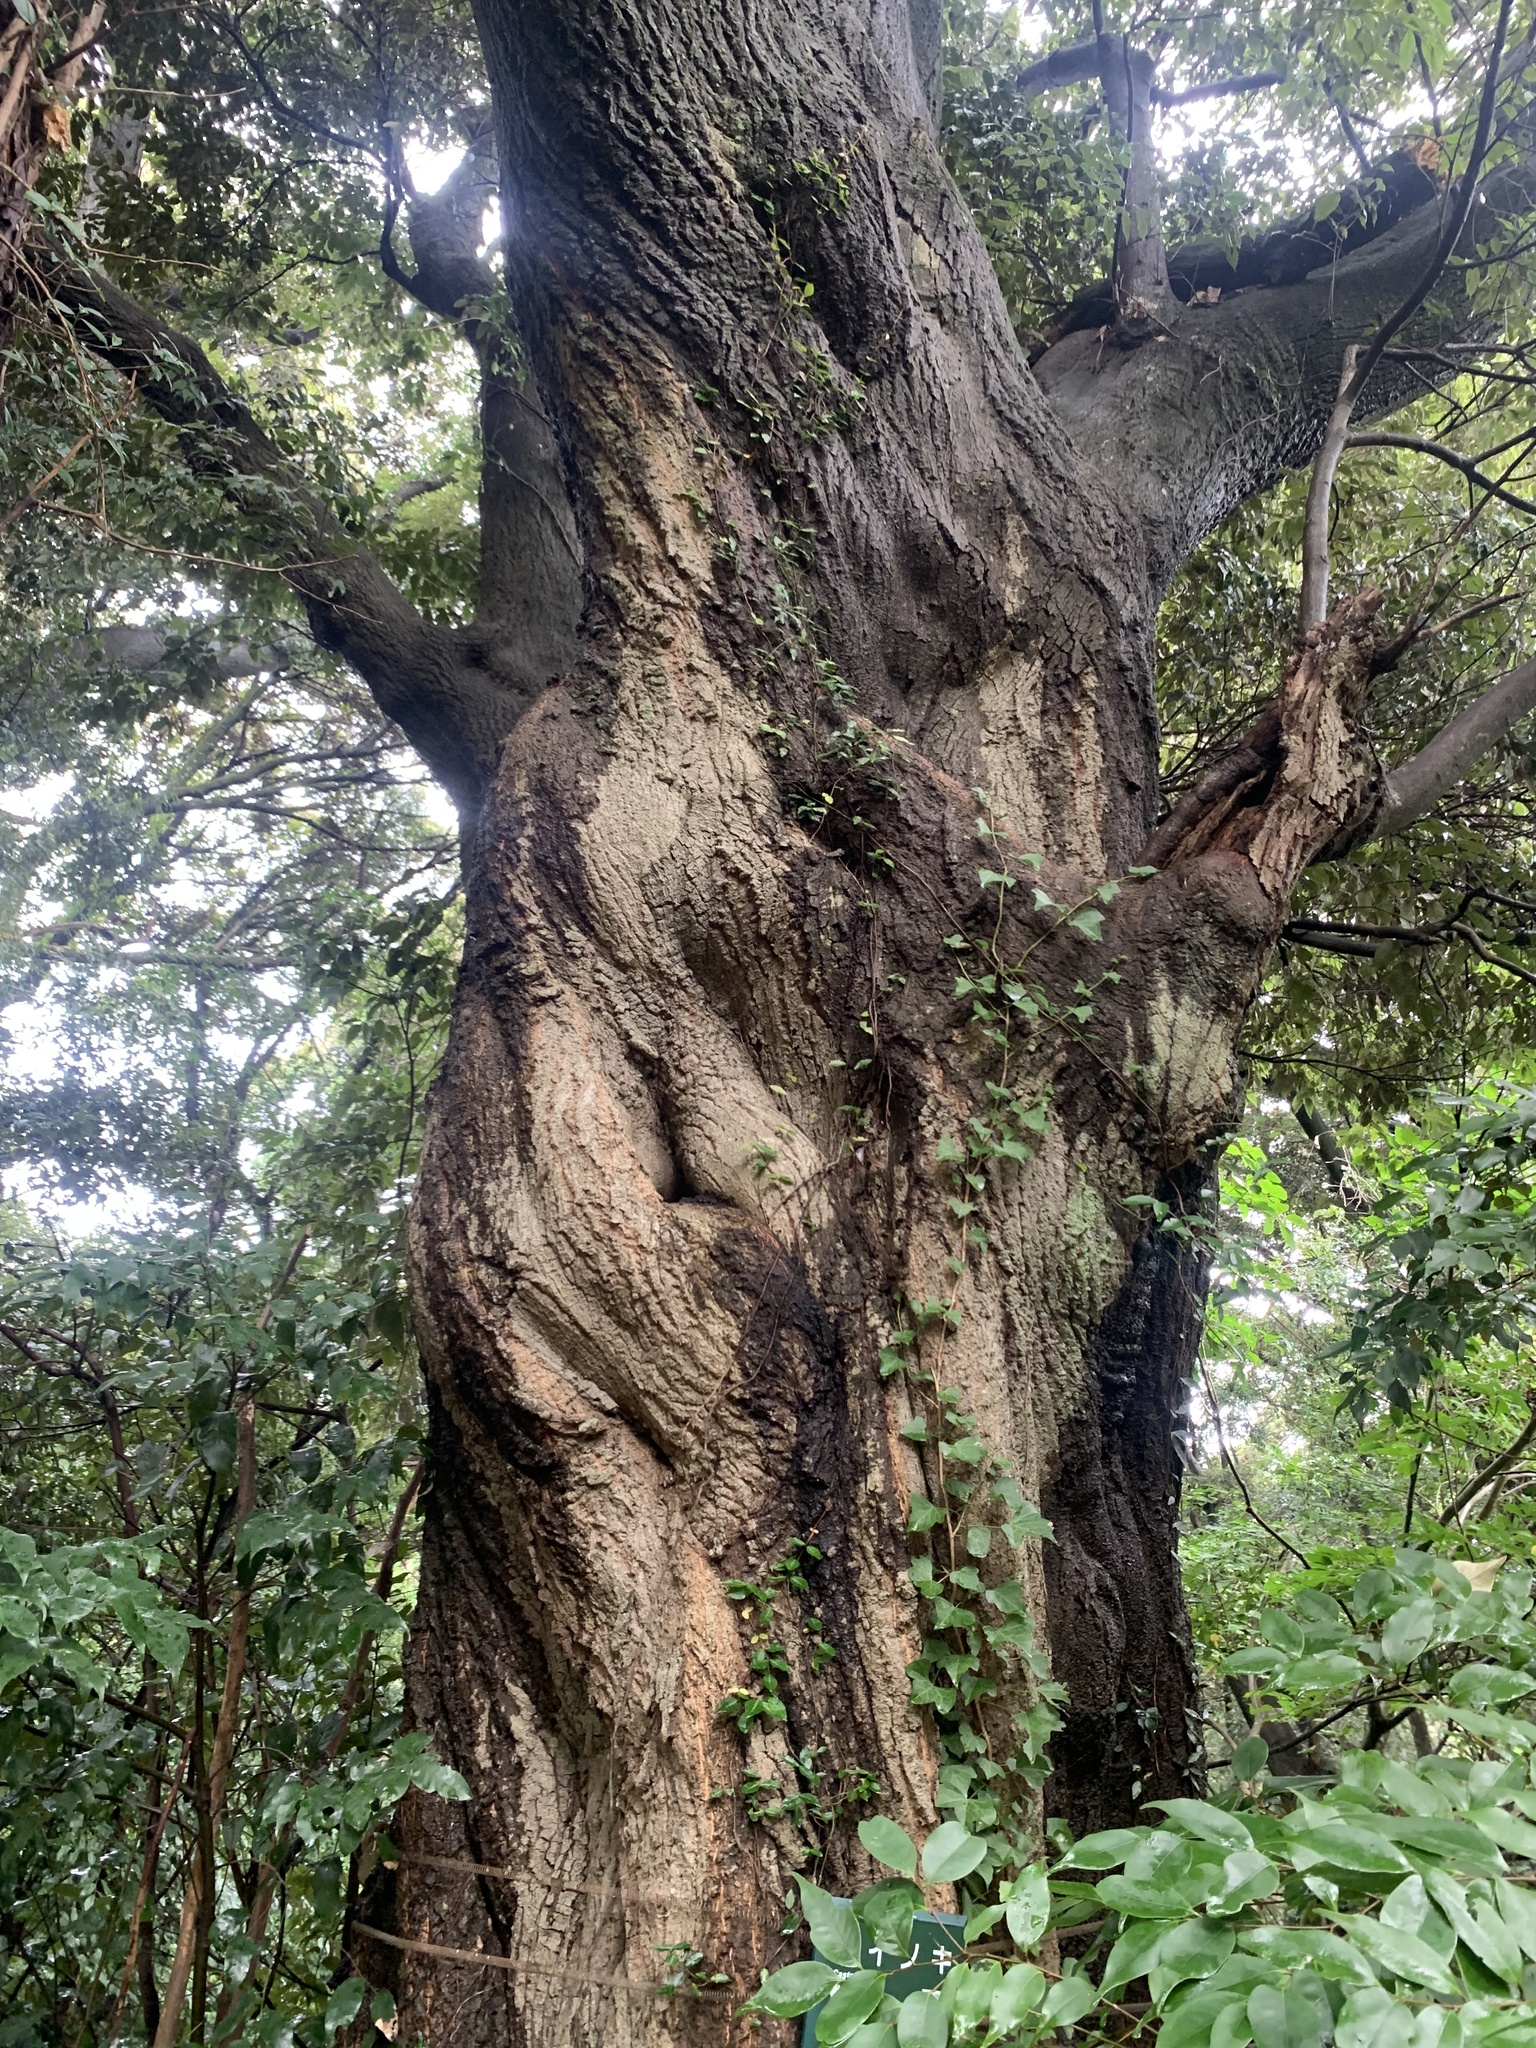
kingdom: Plantae
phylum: Tracheophyta
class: Magnoliopsida
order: Fagales
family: Fagaceae
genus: Castanopsis
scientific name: Castanopsis sieboldii
